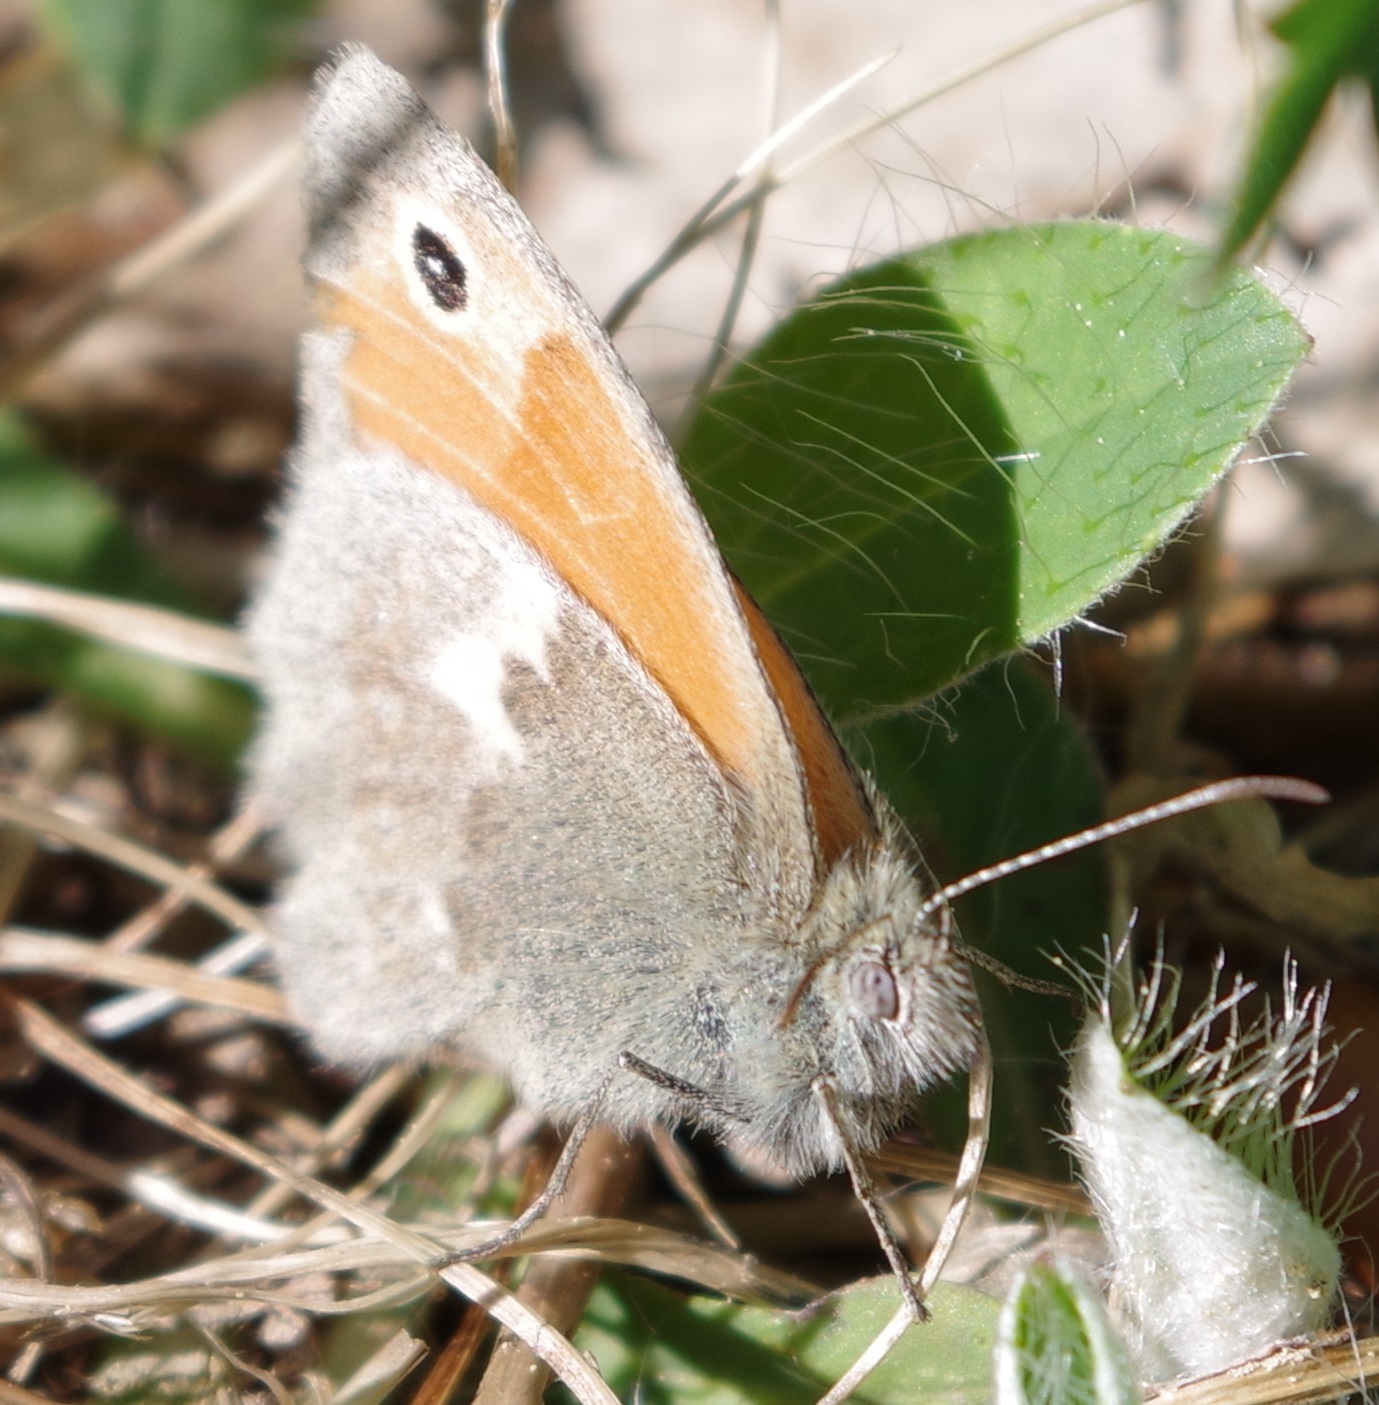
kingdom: Animalia
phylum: Arthropoda
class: Insecta
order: Lepidoptera
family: Nymphalidae
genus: Coenonympha
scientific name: Coenonympha pamphilus
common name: Small heath
